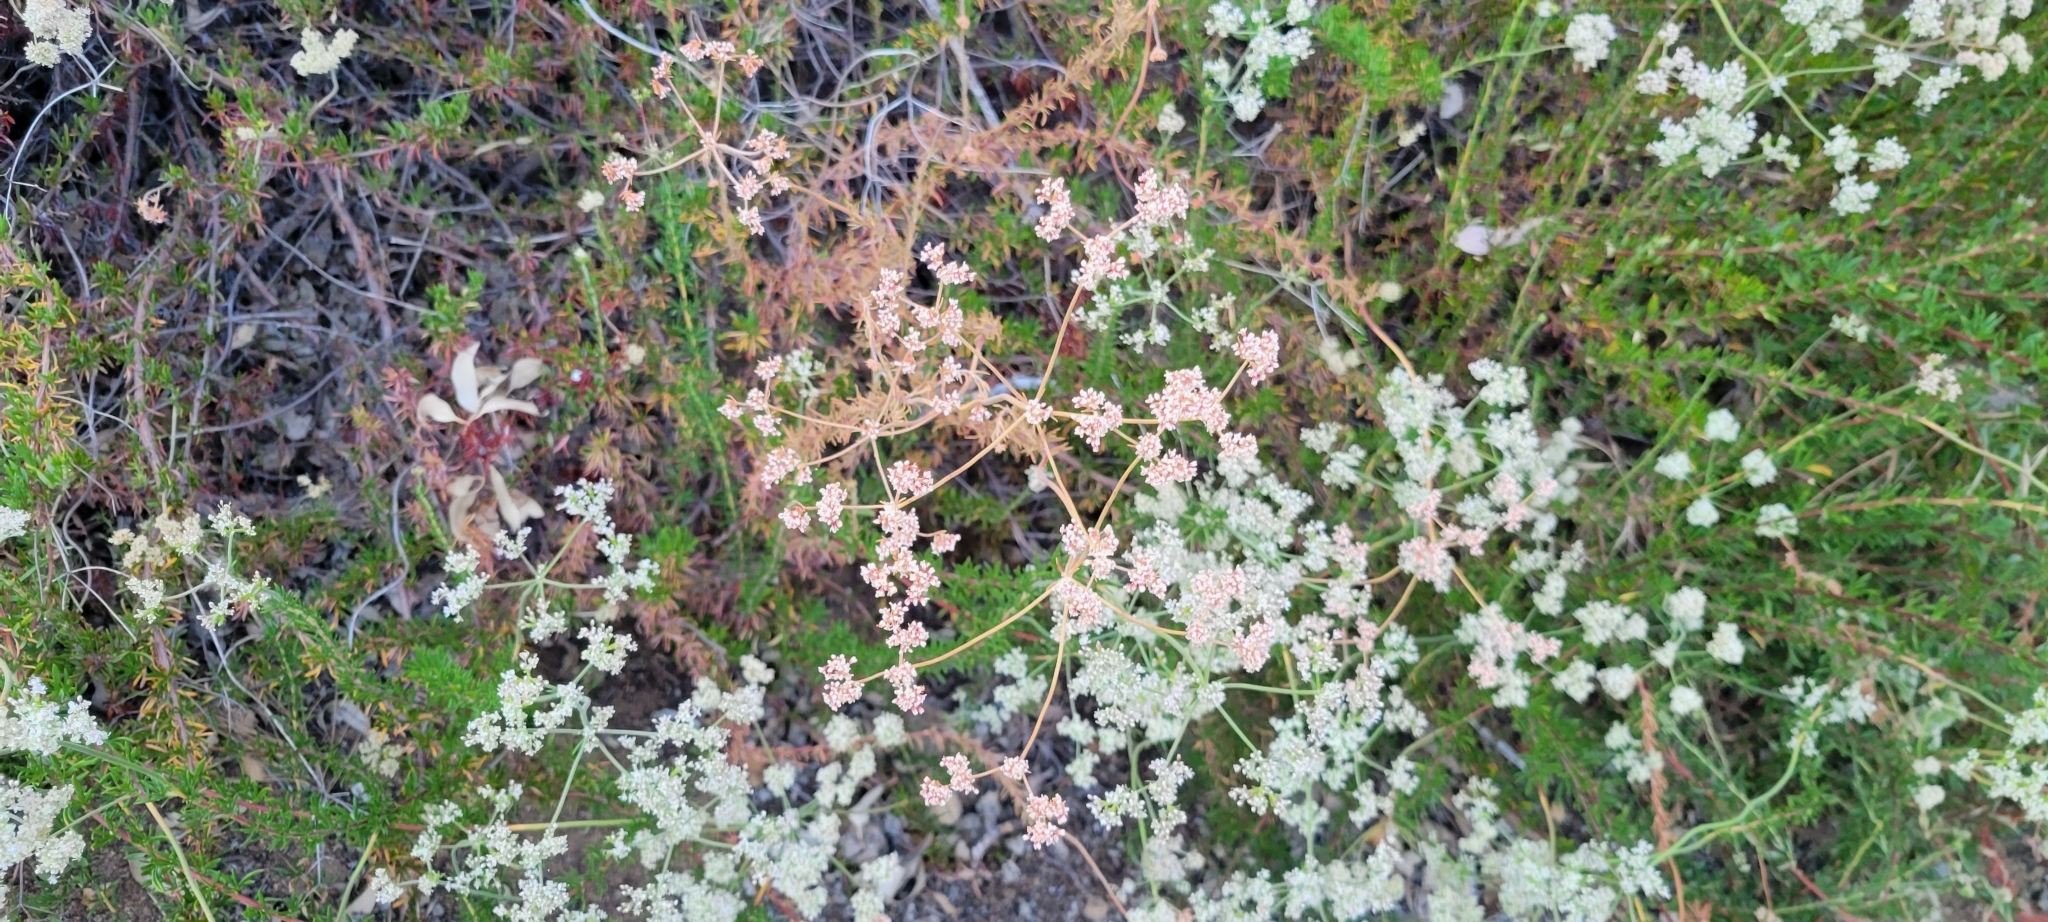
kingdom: Plantae
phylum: Tracheophyta
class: Magnoliopsida
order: Caryophyllales
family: Polygonaceae
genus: Eriogonum
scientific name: Eriogonum fasciculatum
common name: California wild buckwheat
